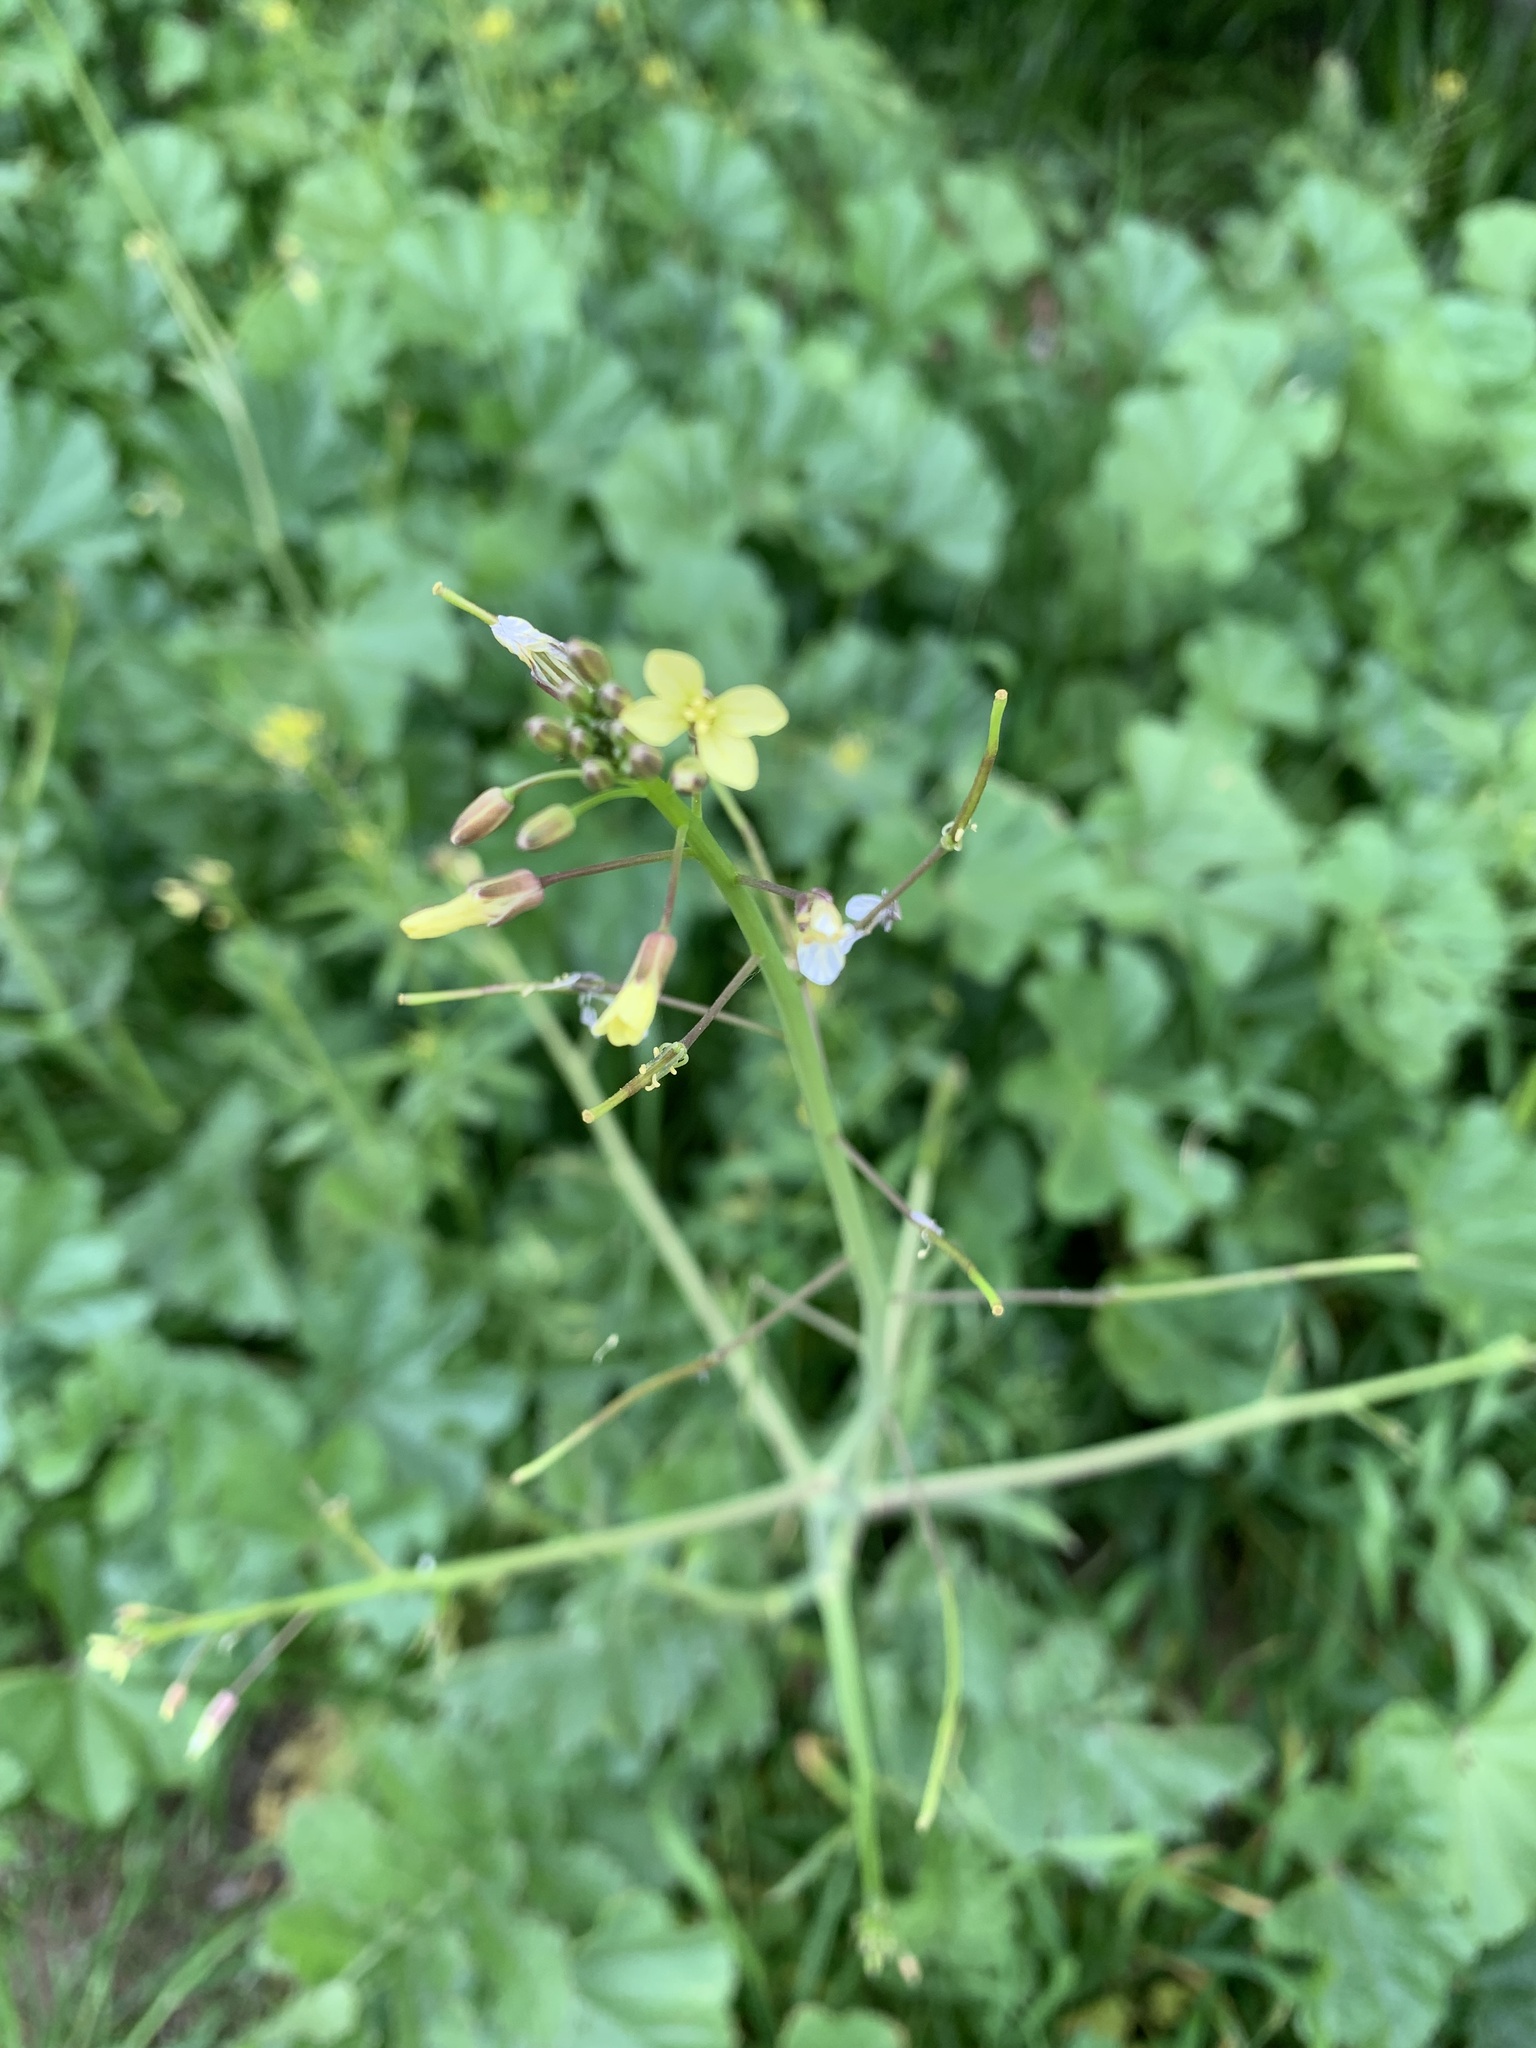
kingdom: Plantae
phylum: Tracheophyta
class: Magnoliopsida
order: Brassicales
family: Brassicaceae
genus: Brassica
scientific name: Brassica tournefortii
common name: Pale cabbage
